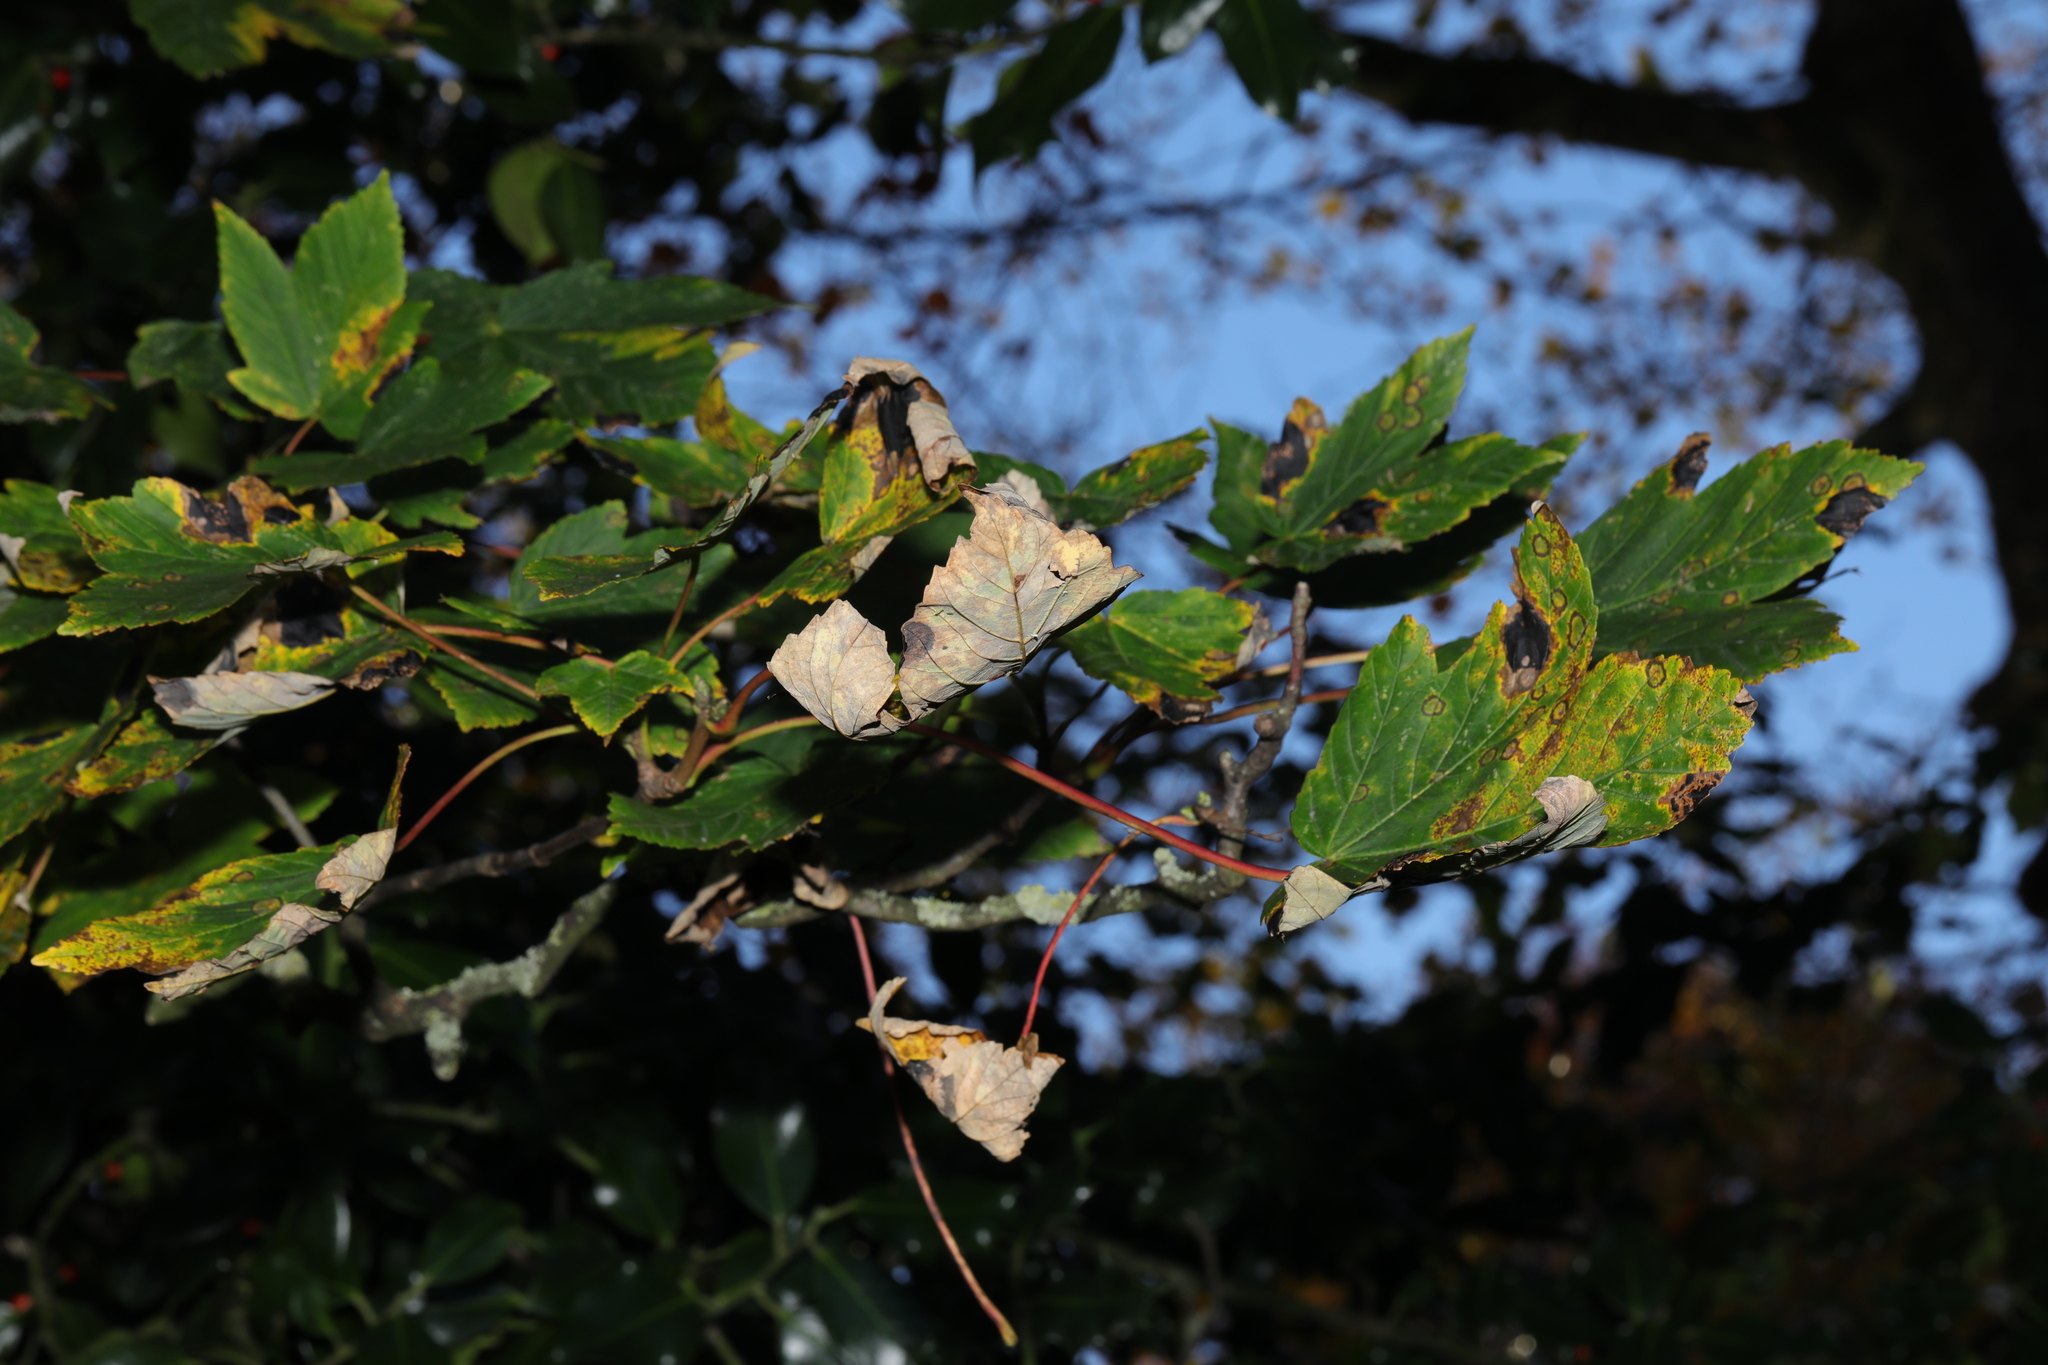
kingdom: Fungi
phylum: Ascomycota
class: Leotiomycetes
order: Rhytismatales
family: Rhytismataceae
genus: Rhytisma
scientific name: Rhytisma acerinum
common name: European tar spot
